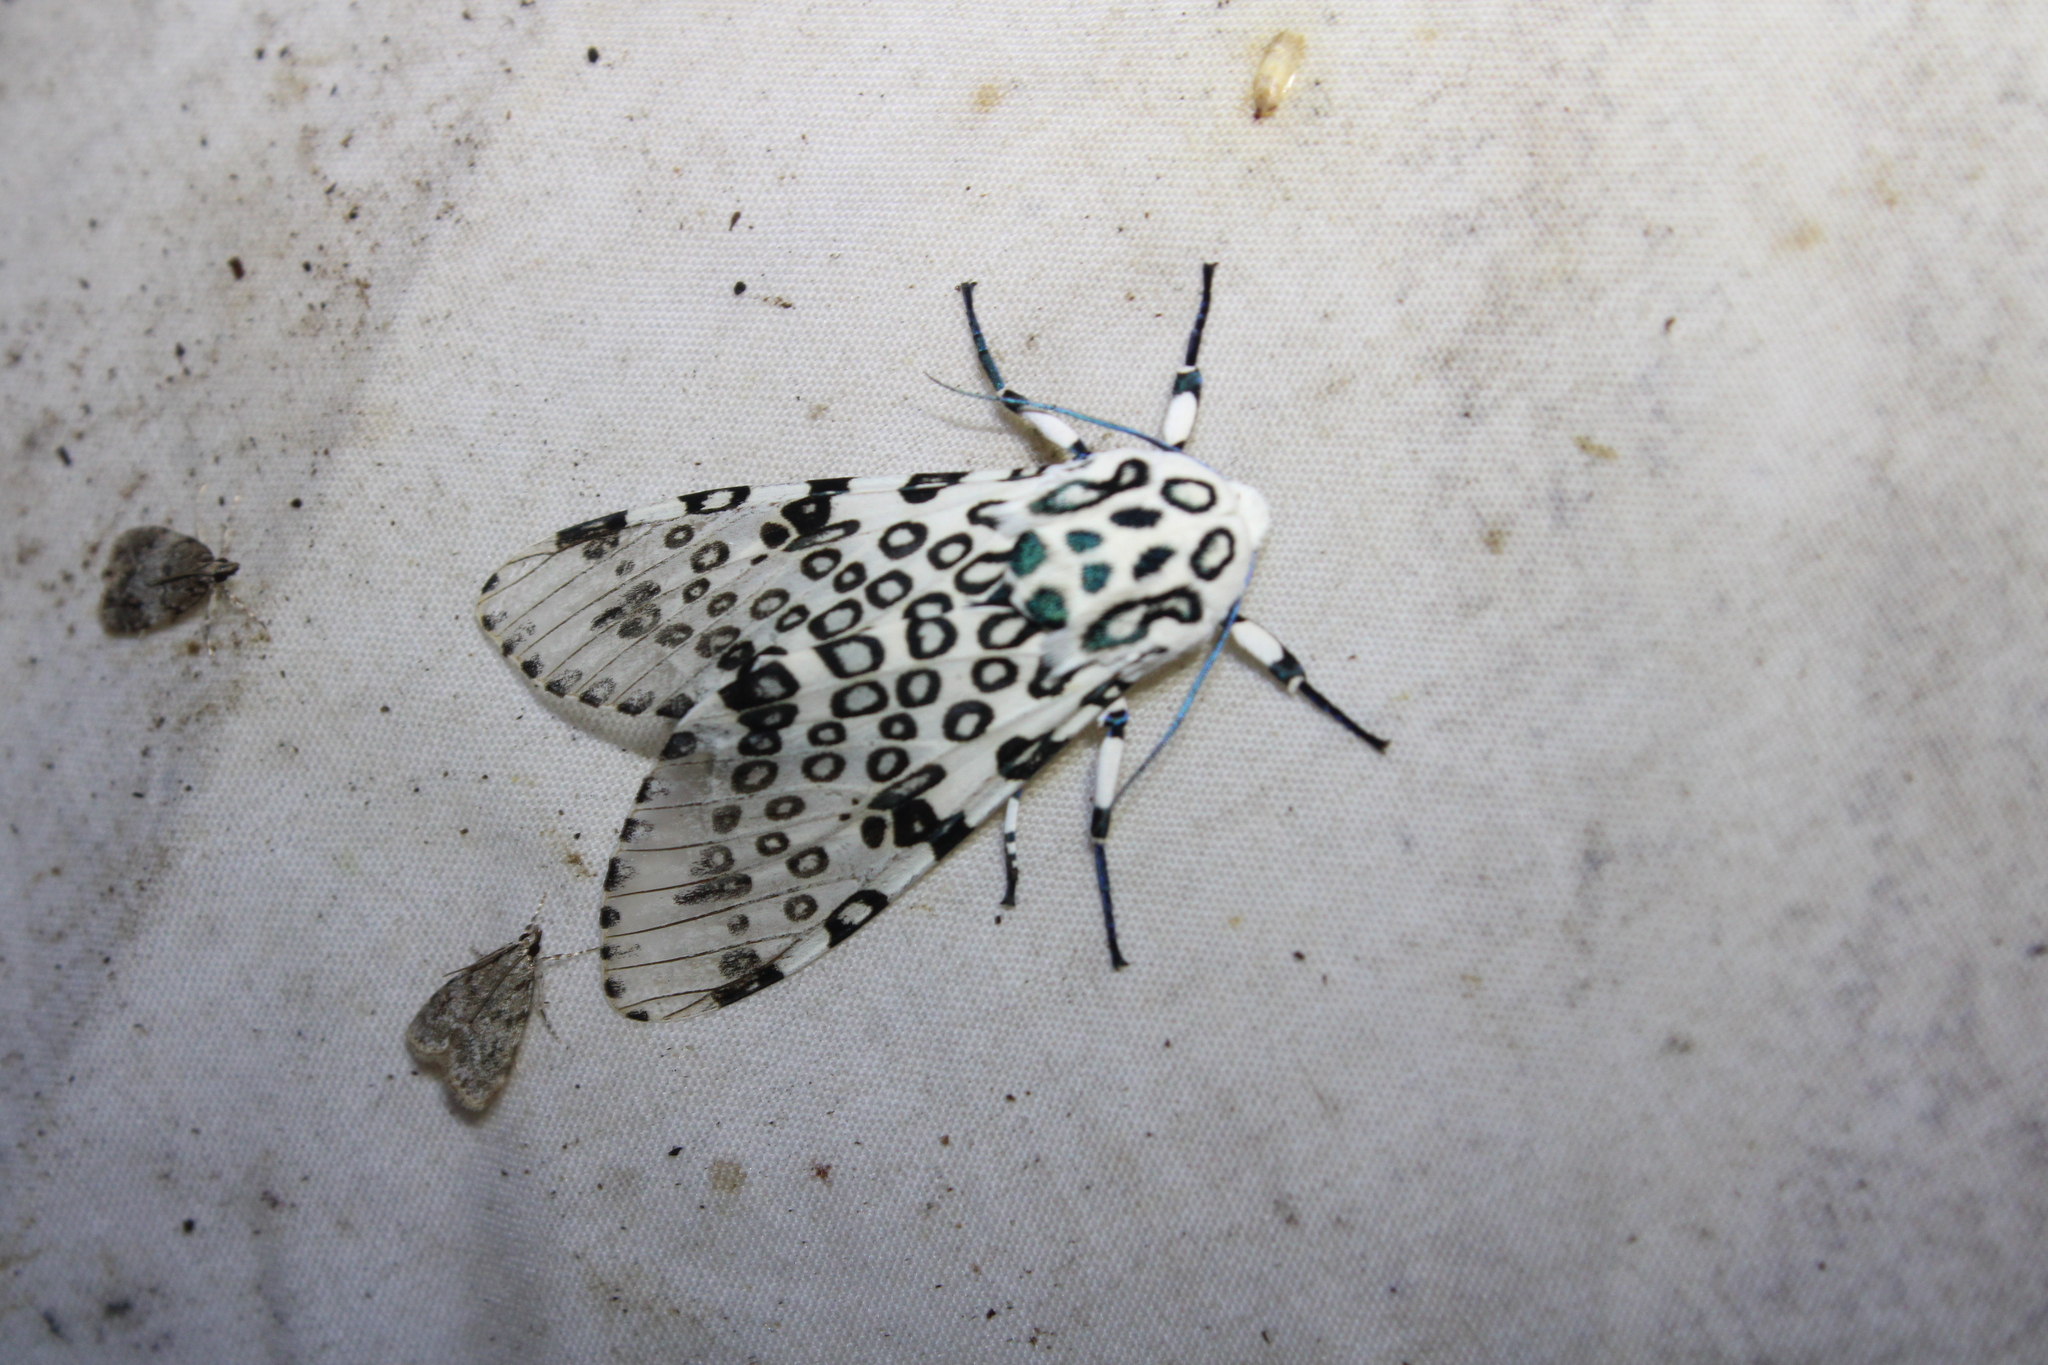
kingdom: Animalia
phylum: Arthropoda
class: Insecta
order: Lepidoptera
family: Erebidae
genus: Hypercompe
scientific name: Hypercompe scribonia
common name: Giant leopard moth
